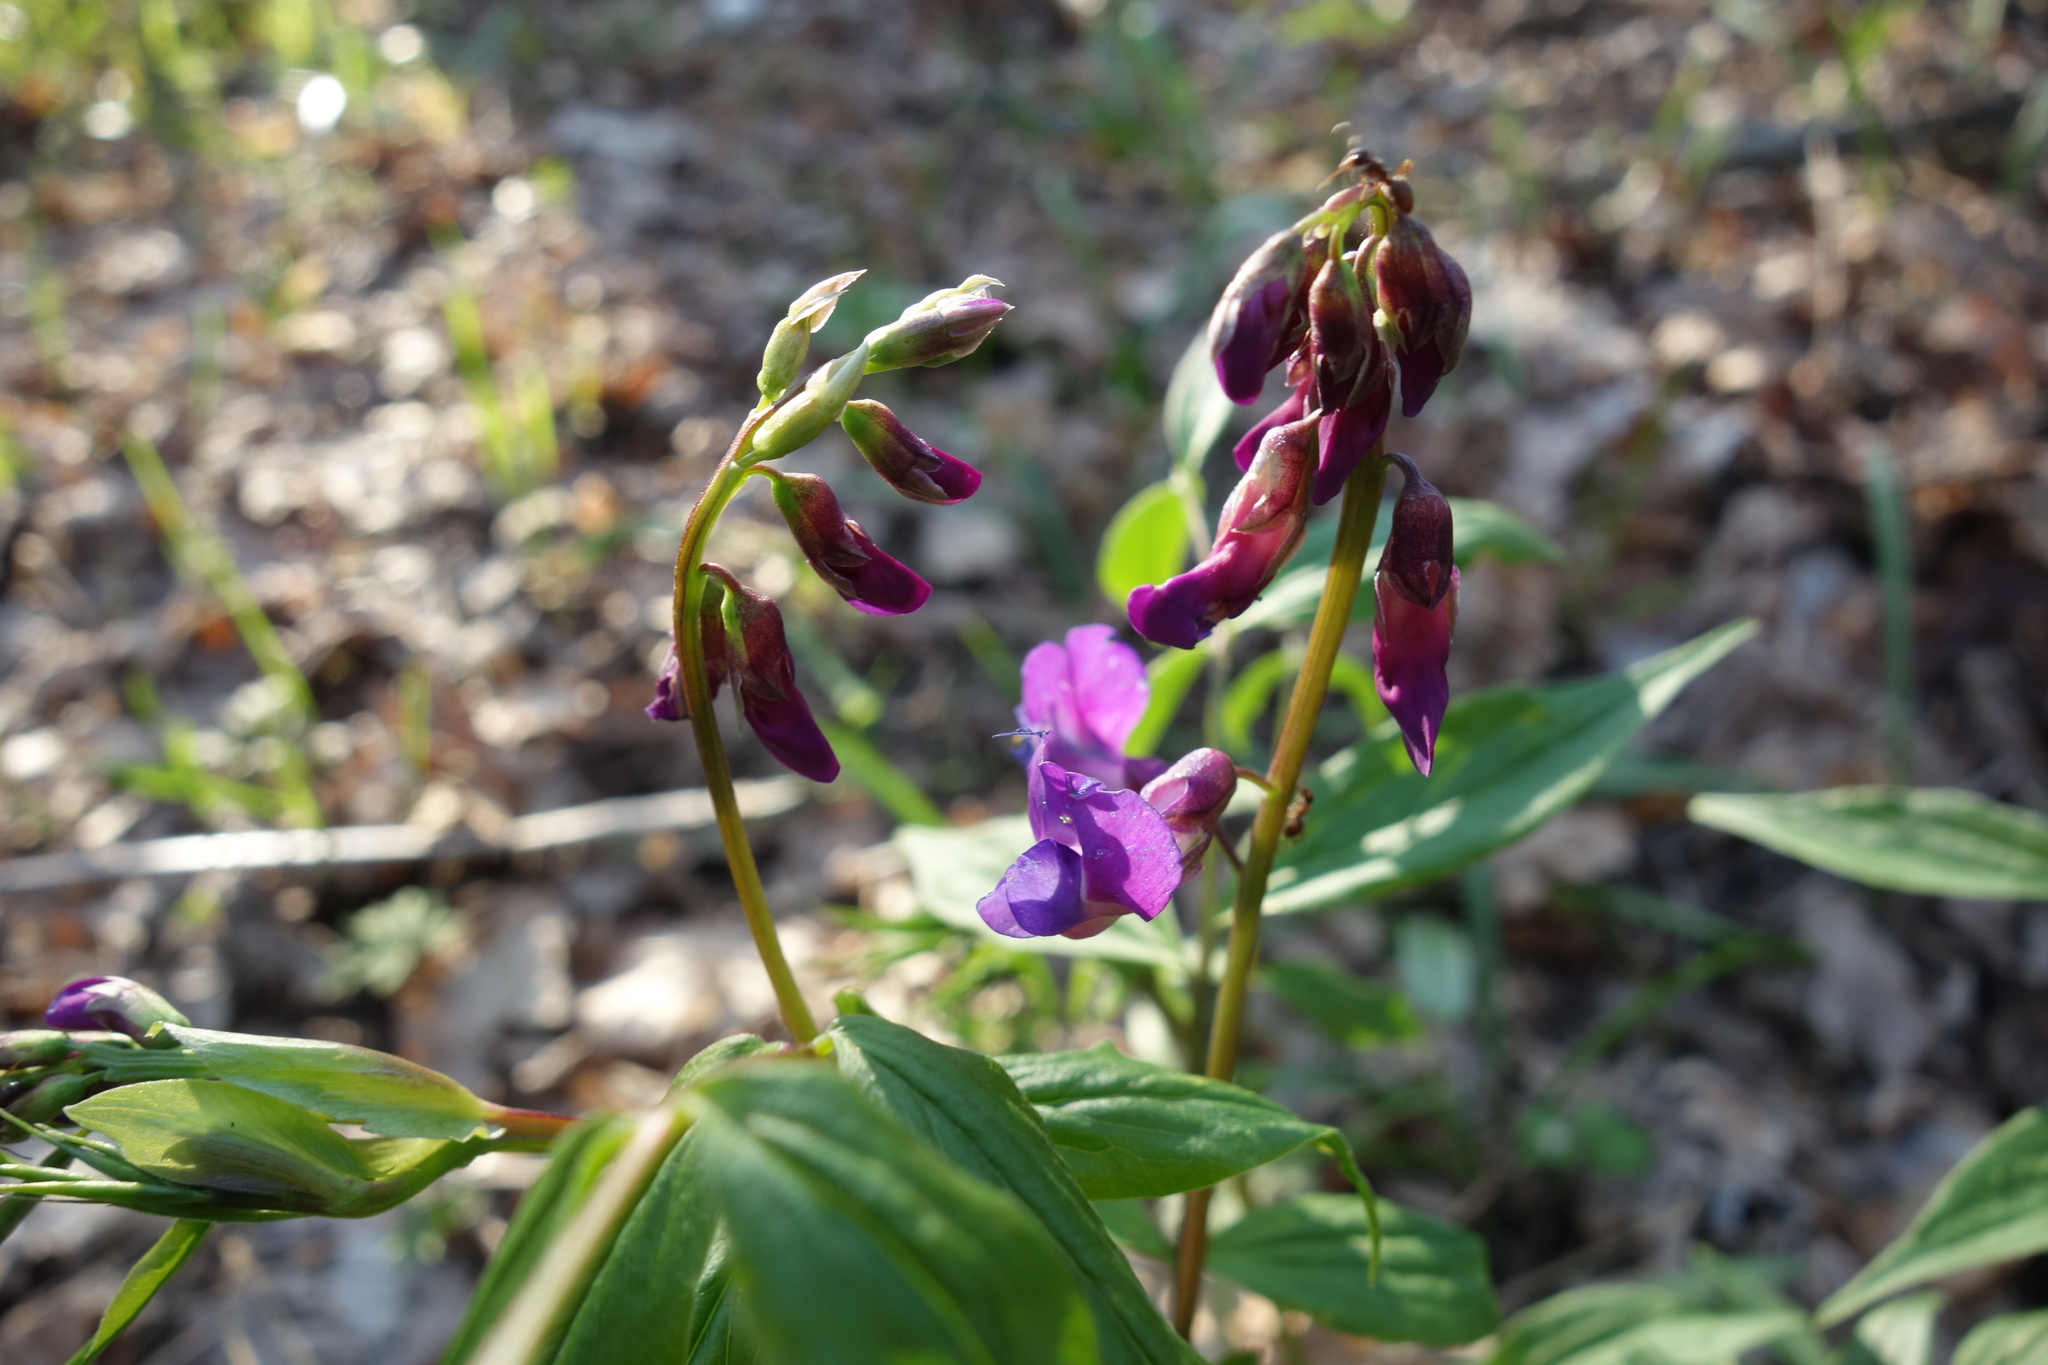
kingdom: Plantae
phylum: Tracheophyta
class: Magnoliopsida
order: Fabales
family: Fabaceae
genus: Lathyrus
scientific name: Lathyrus vernus
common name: Spring pea
